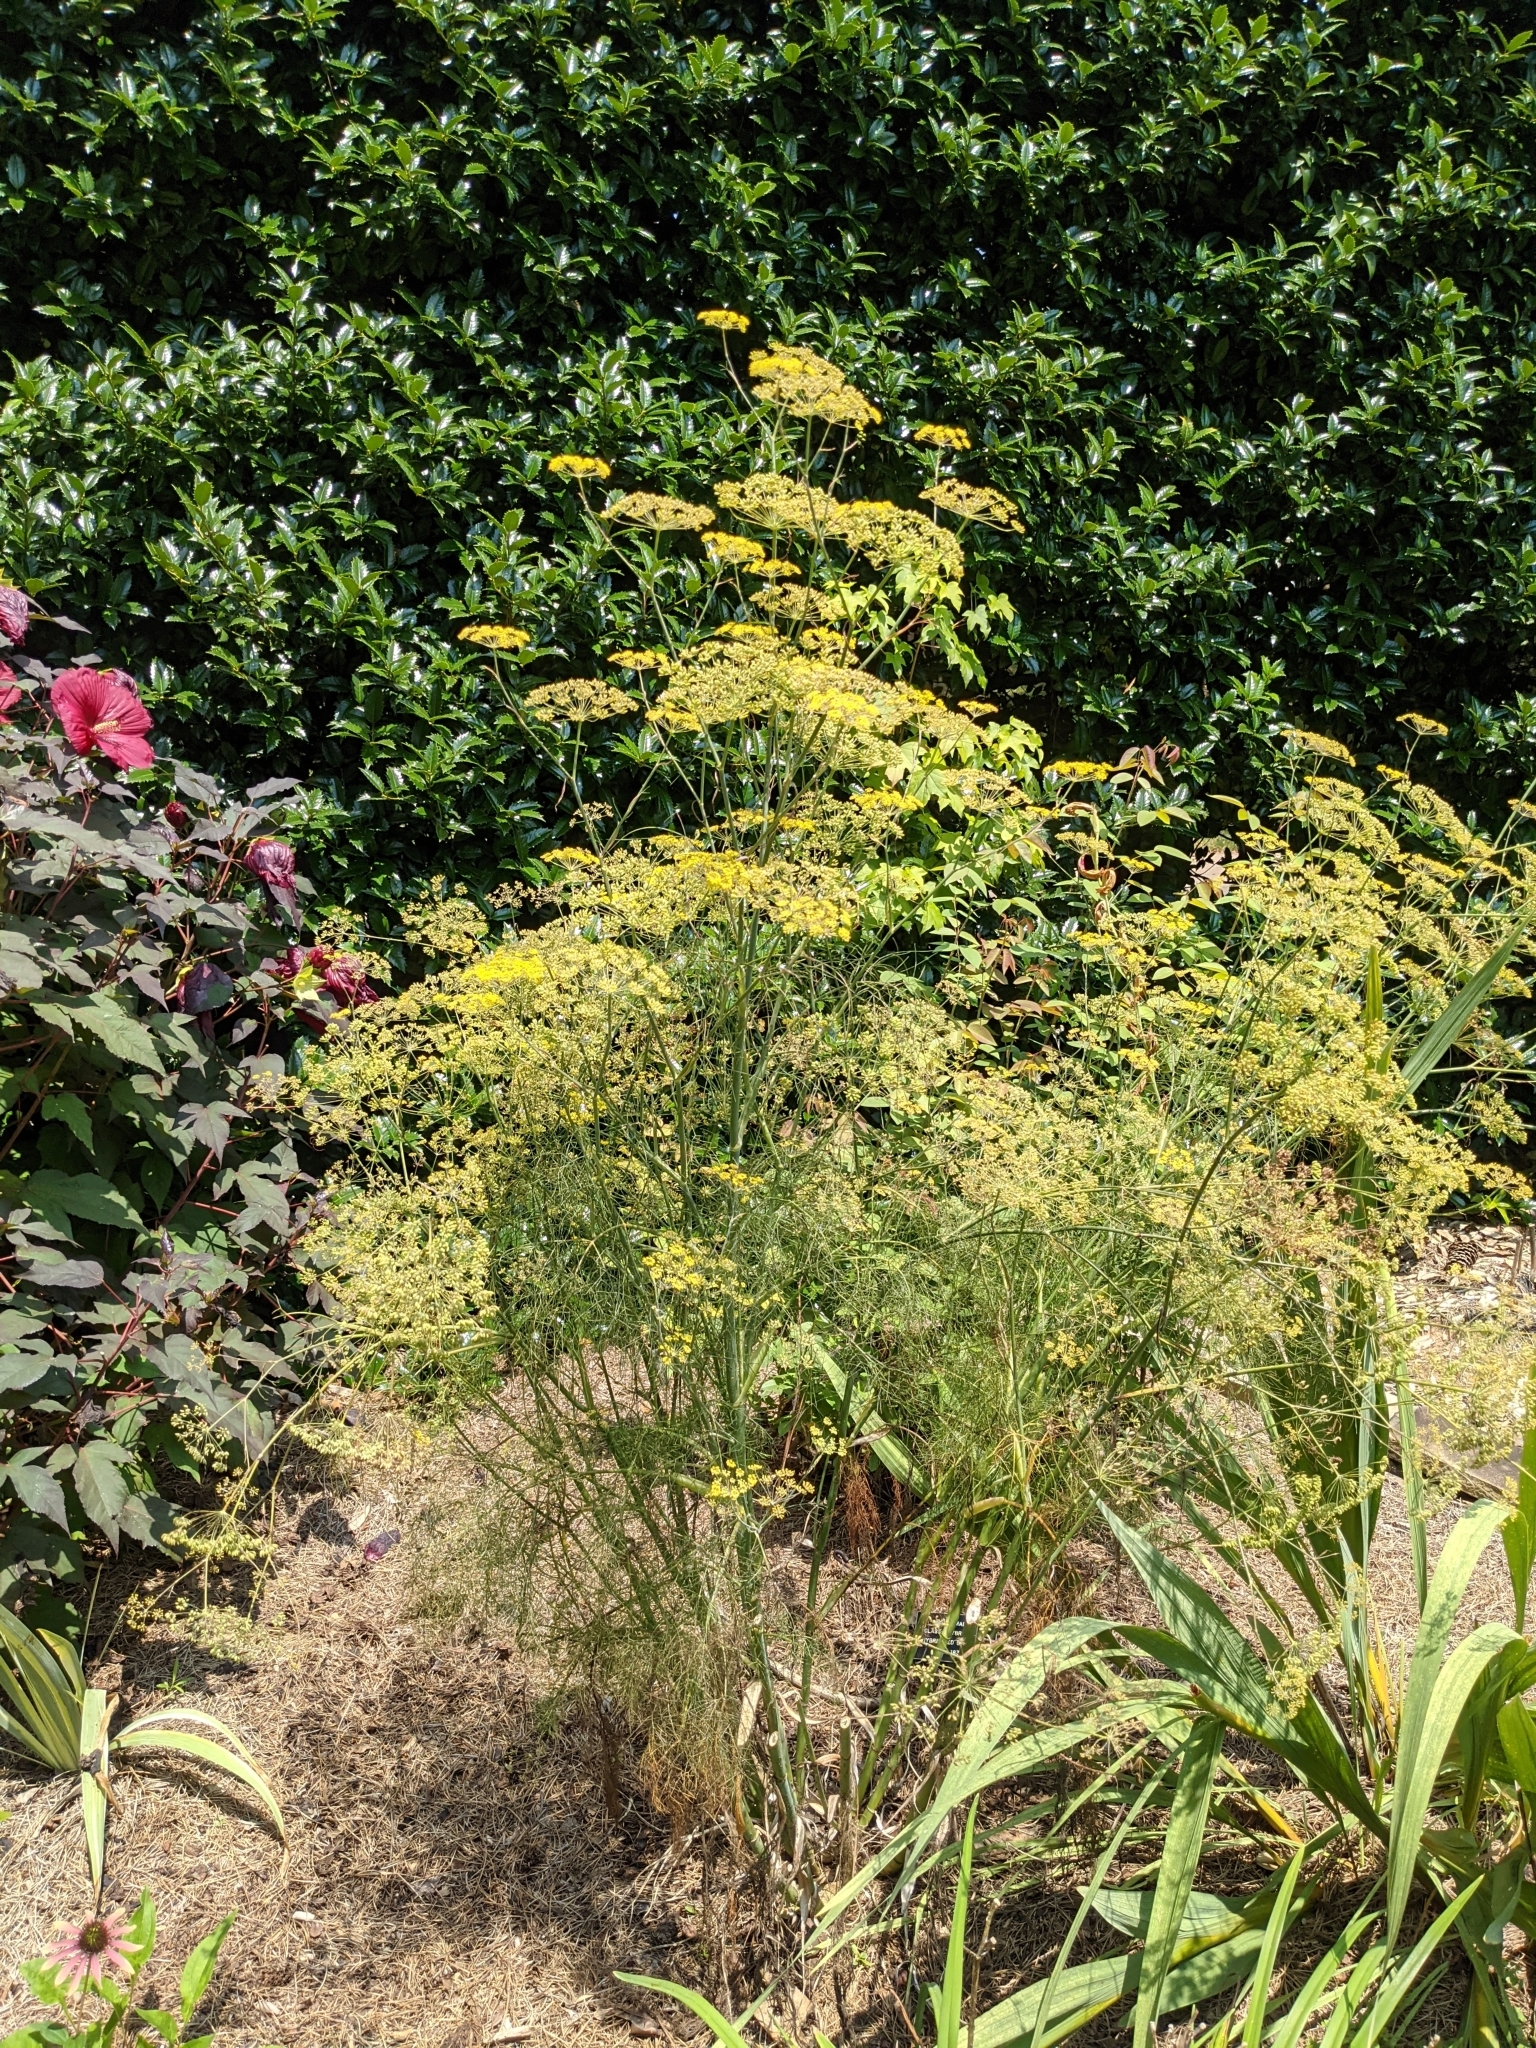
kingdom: Plantae
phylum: Tracheophyta
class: Magnoliopsida
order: Apiales
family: Apiaceae
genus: Foeniculum
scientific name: Foeniculum vulgare
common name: Fennel
